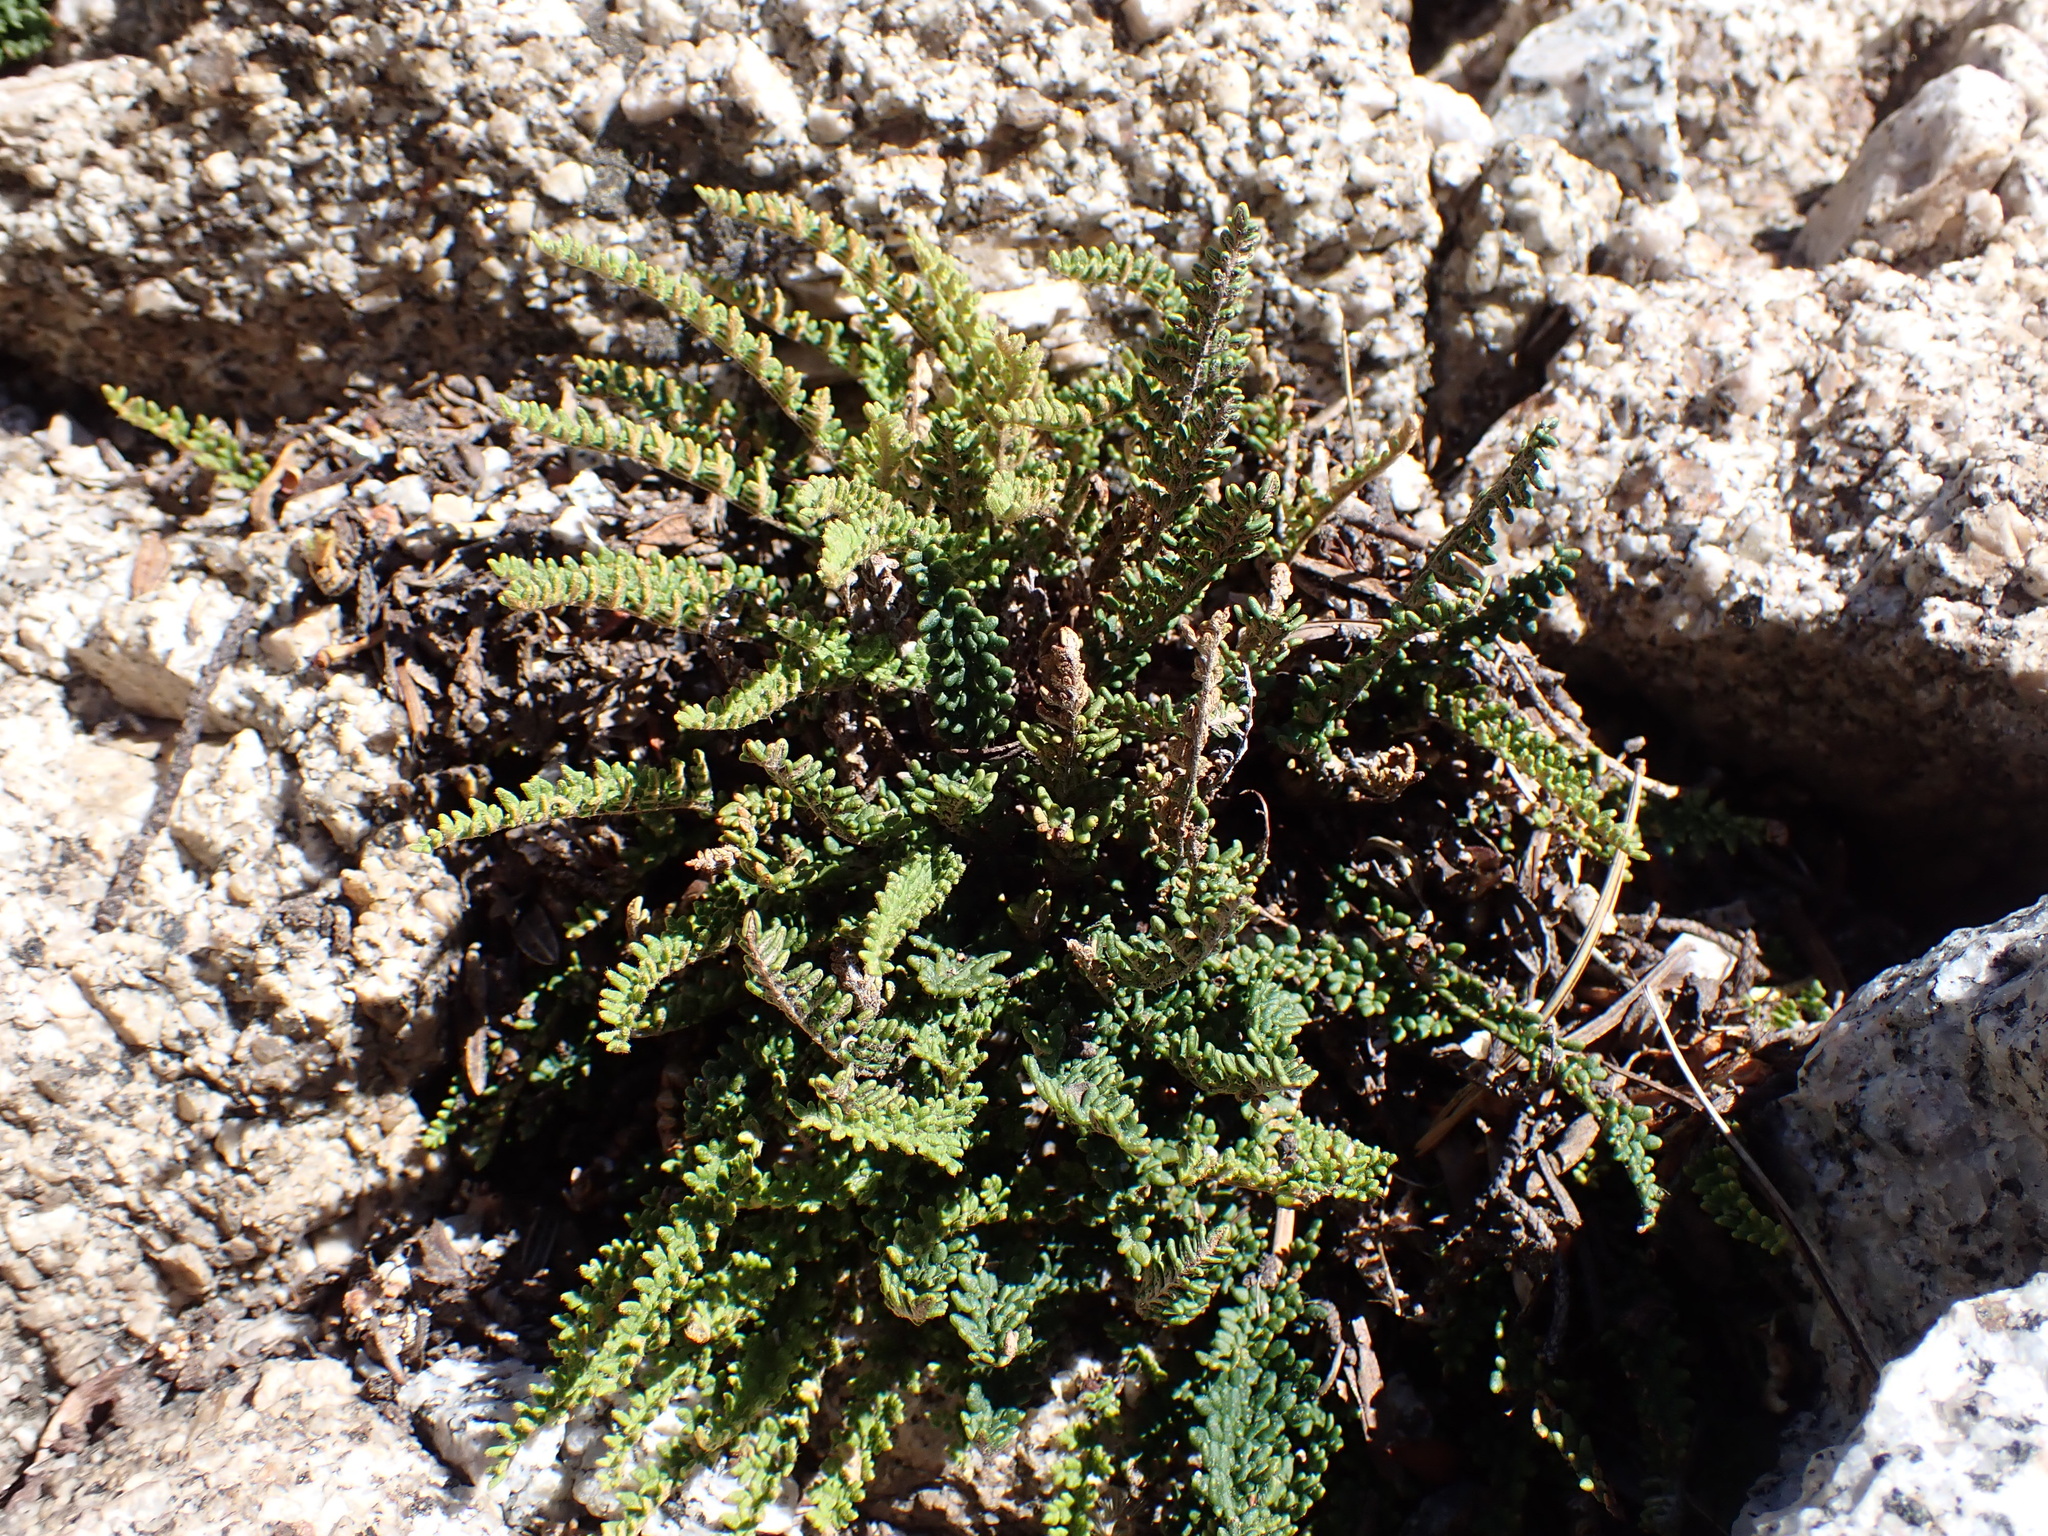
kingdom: Plantae
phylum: Tracheophyta
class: Polypodiopsida
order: Polypodiales
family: Pteridaceae
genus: Myriopteris
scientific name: Myriopteris gracillima
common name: Lace fern
